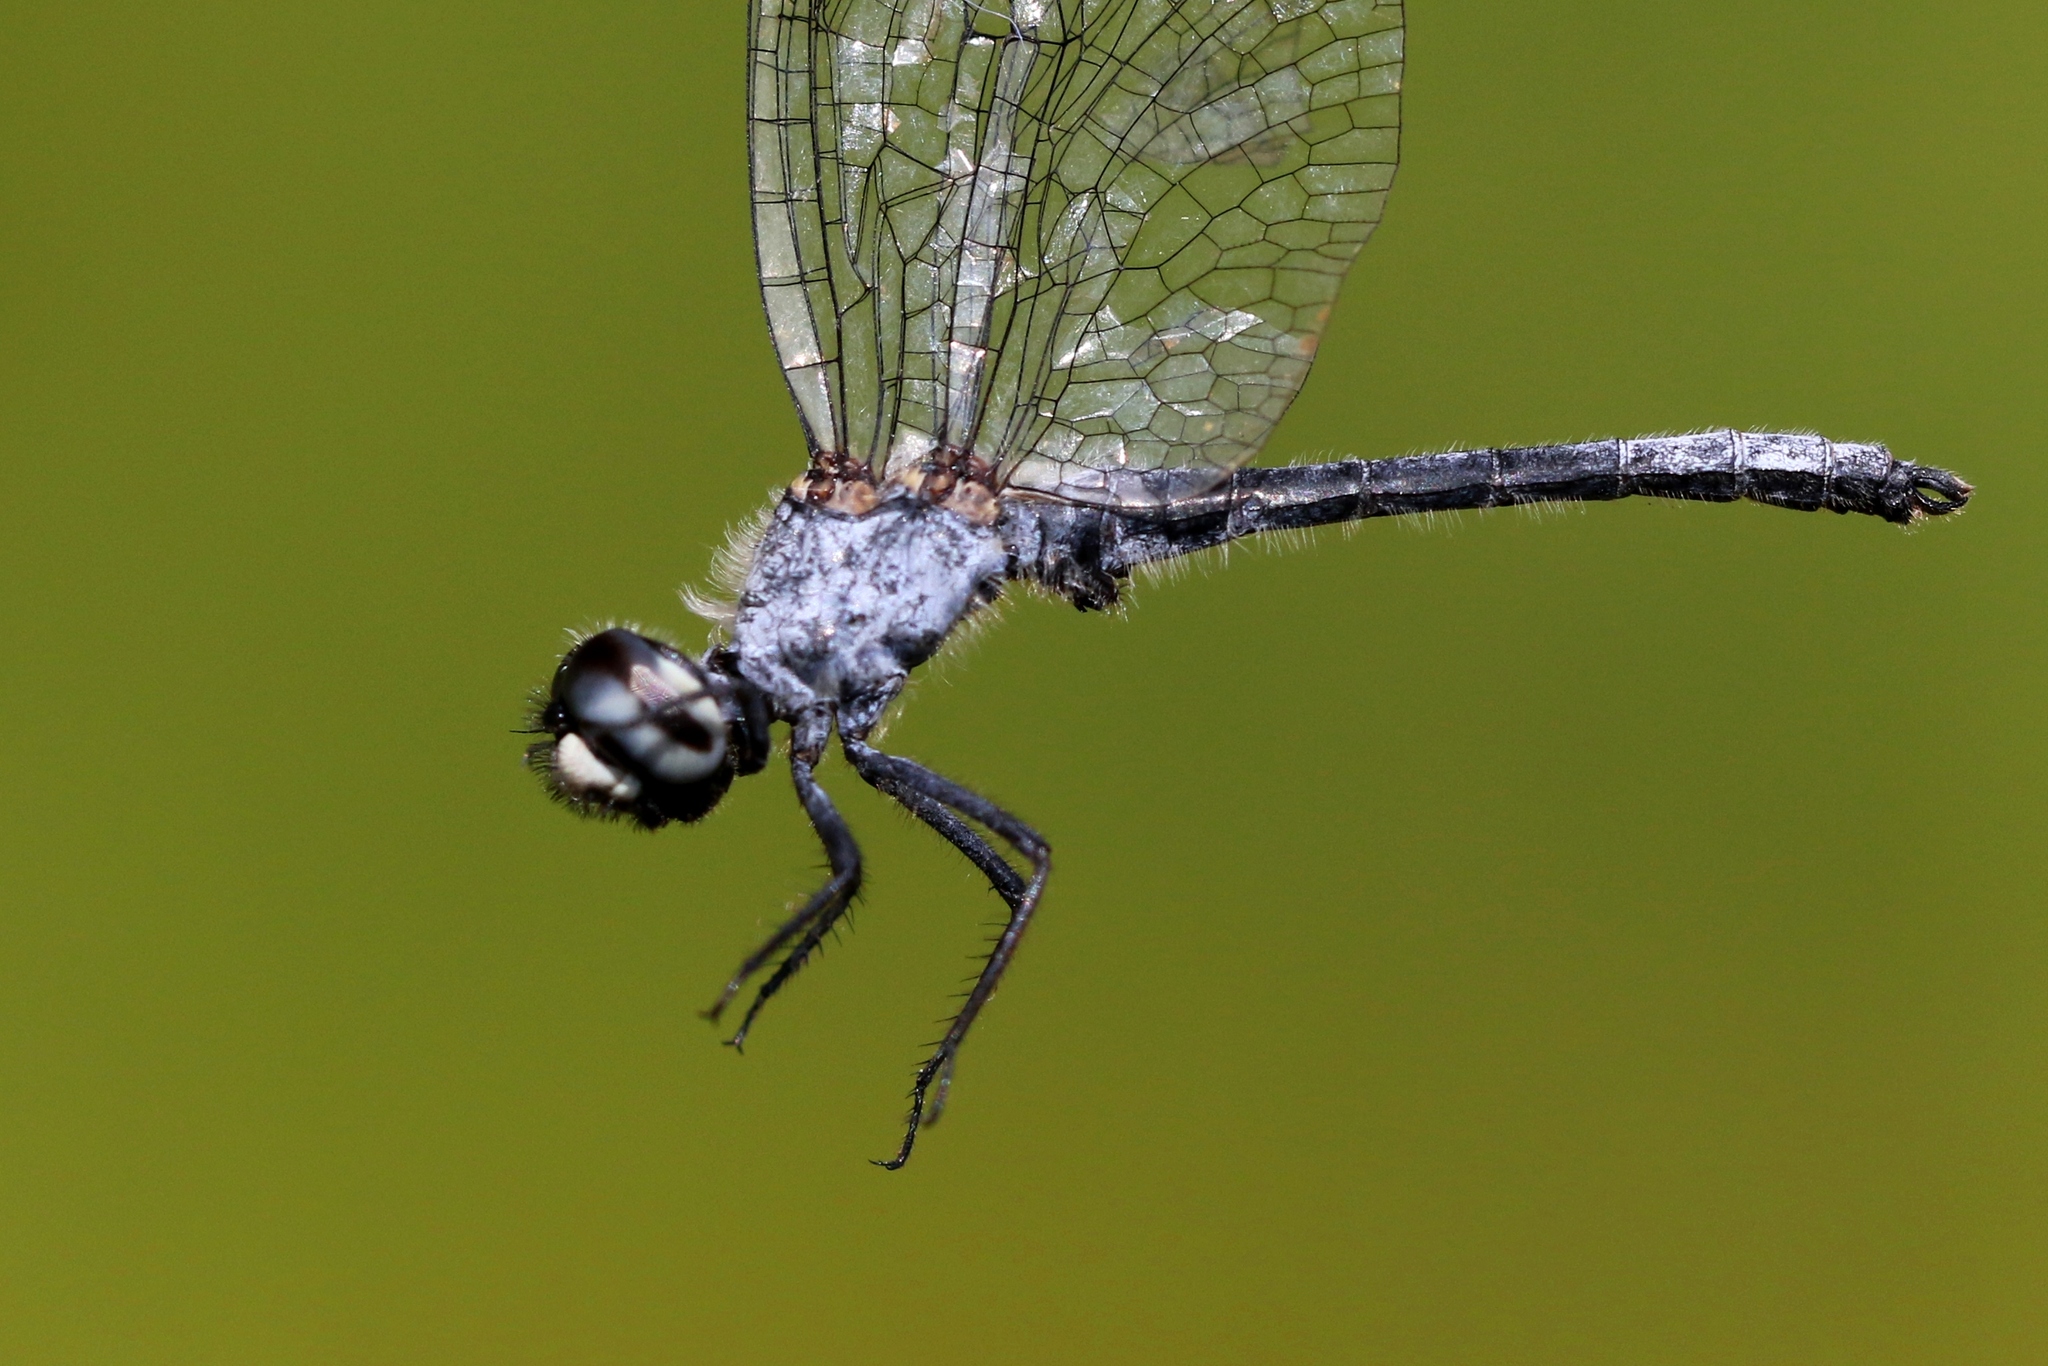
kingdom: Animalia
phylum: Arthropoda
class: Insecta
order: Odonata
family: Libellulidae
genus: Nannothemis
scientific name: Nannothemis bella
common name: Elfin skimmer
